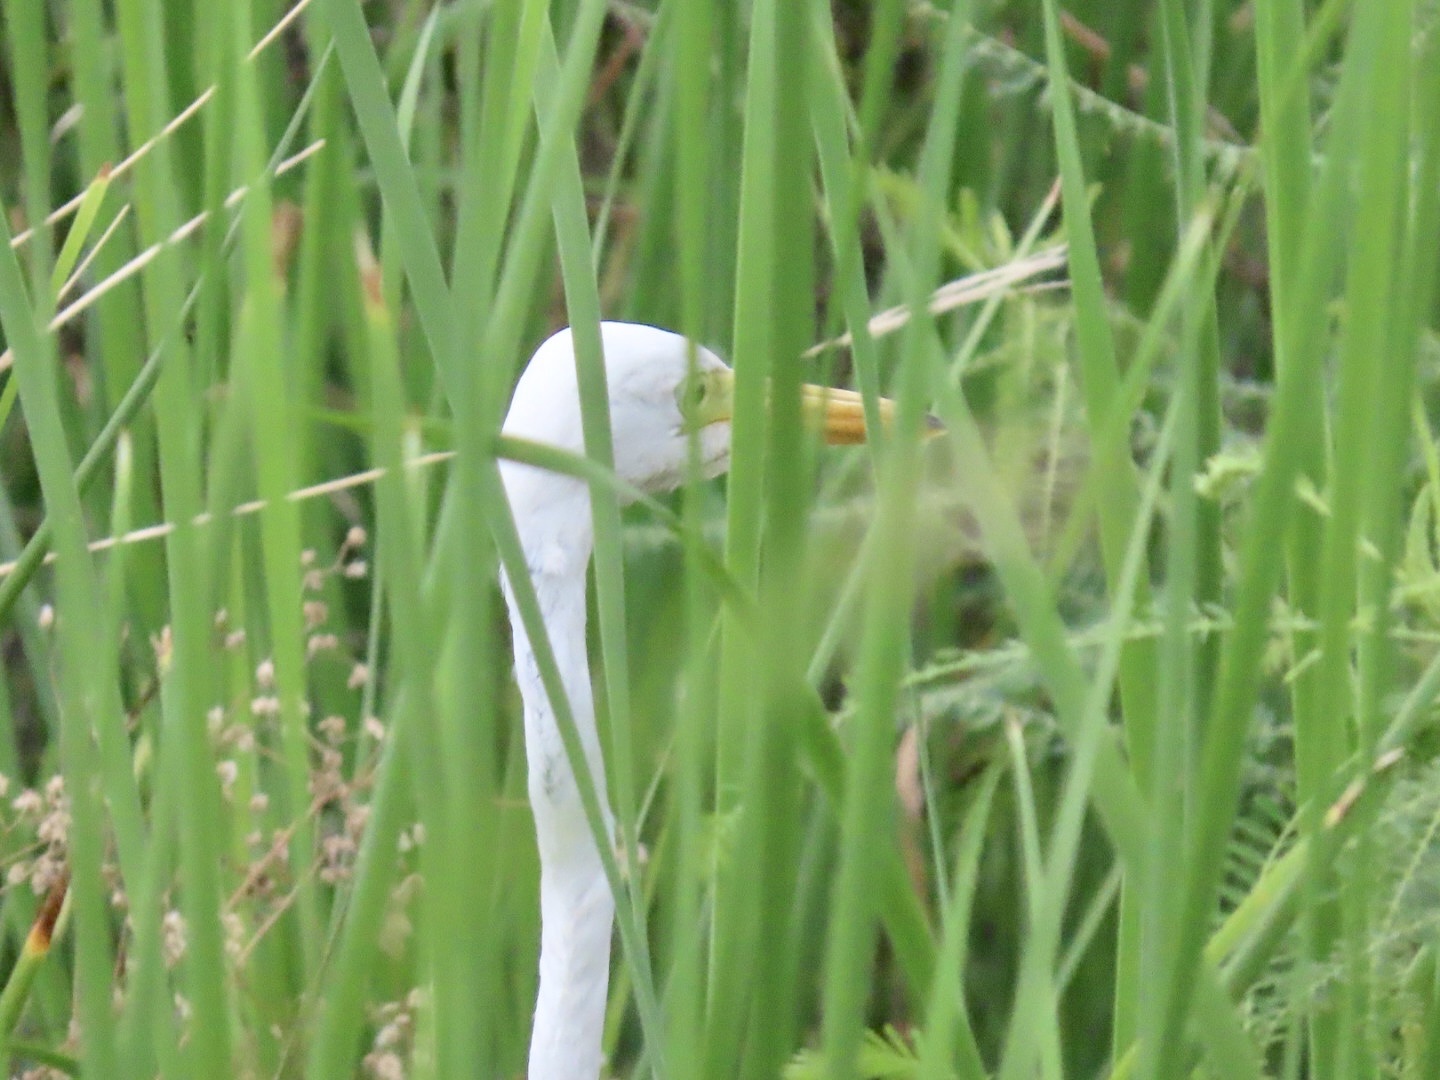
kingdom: Animalia
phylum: Chordata
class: Aves
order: Pelecaniformes
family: Ardeidae
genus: Egretta
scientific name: Egretta intermedia
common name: Intermediate egret
